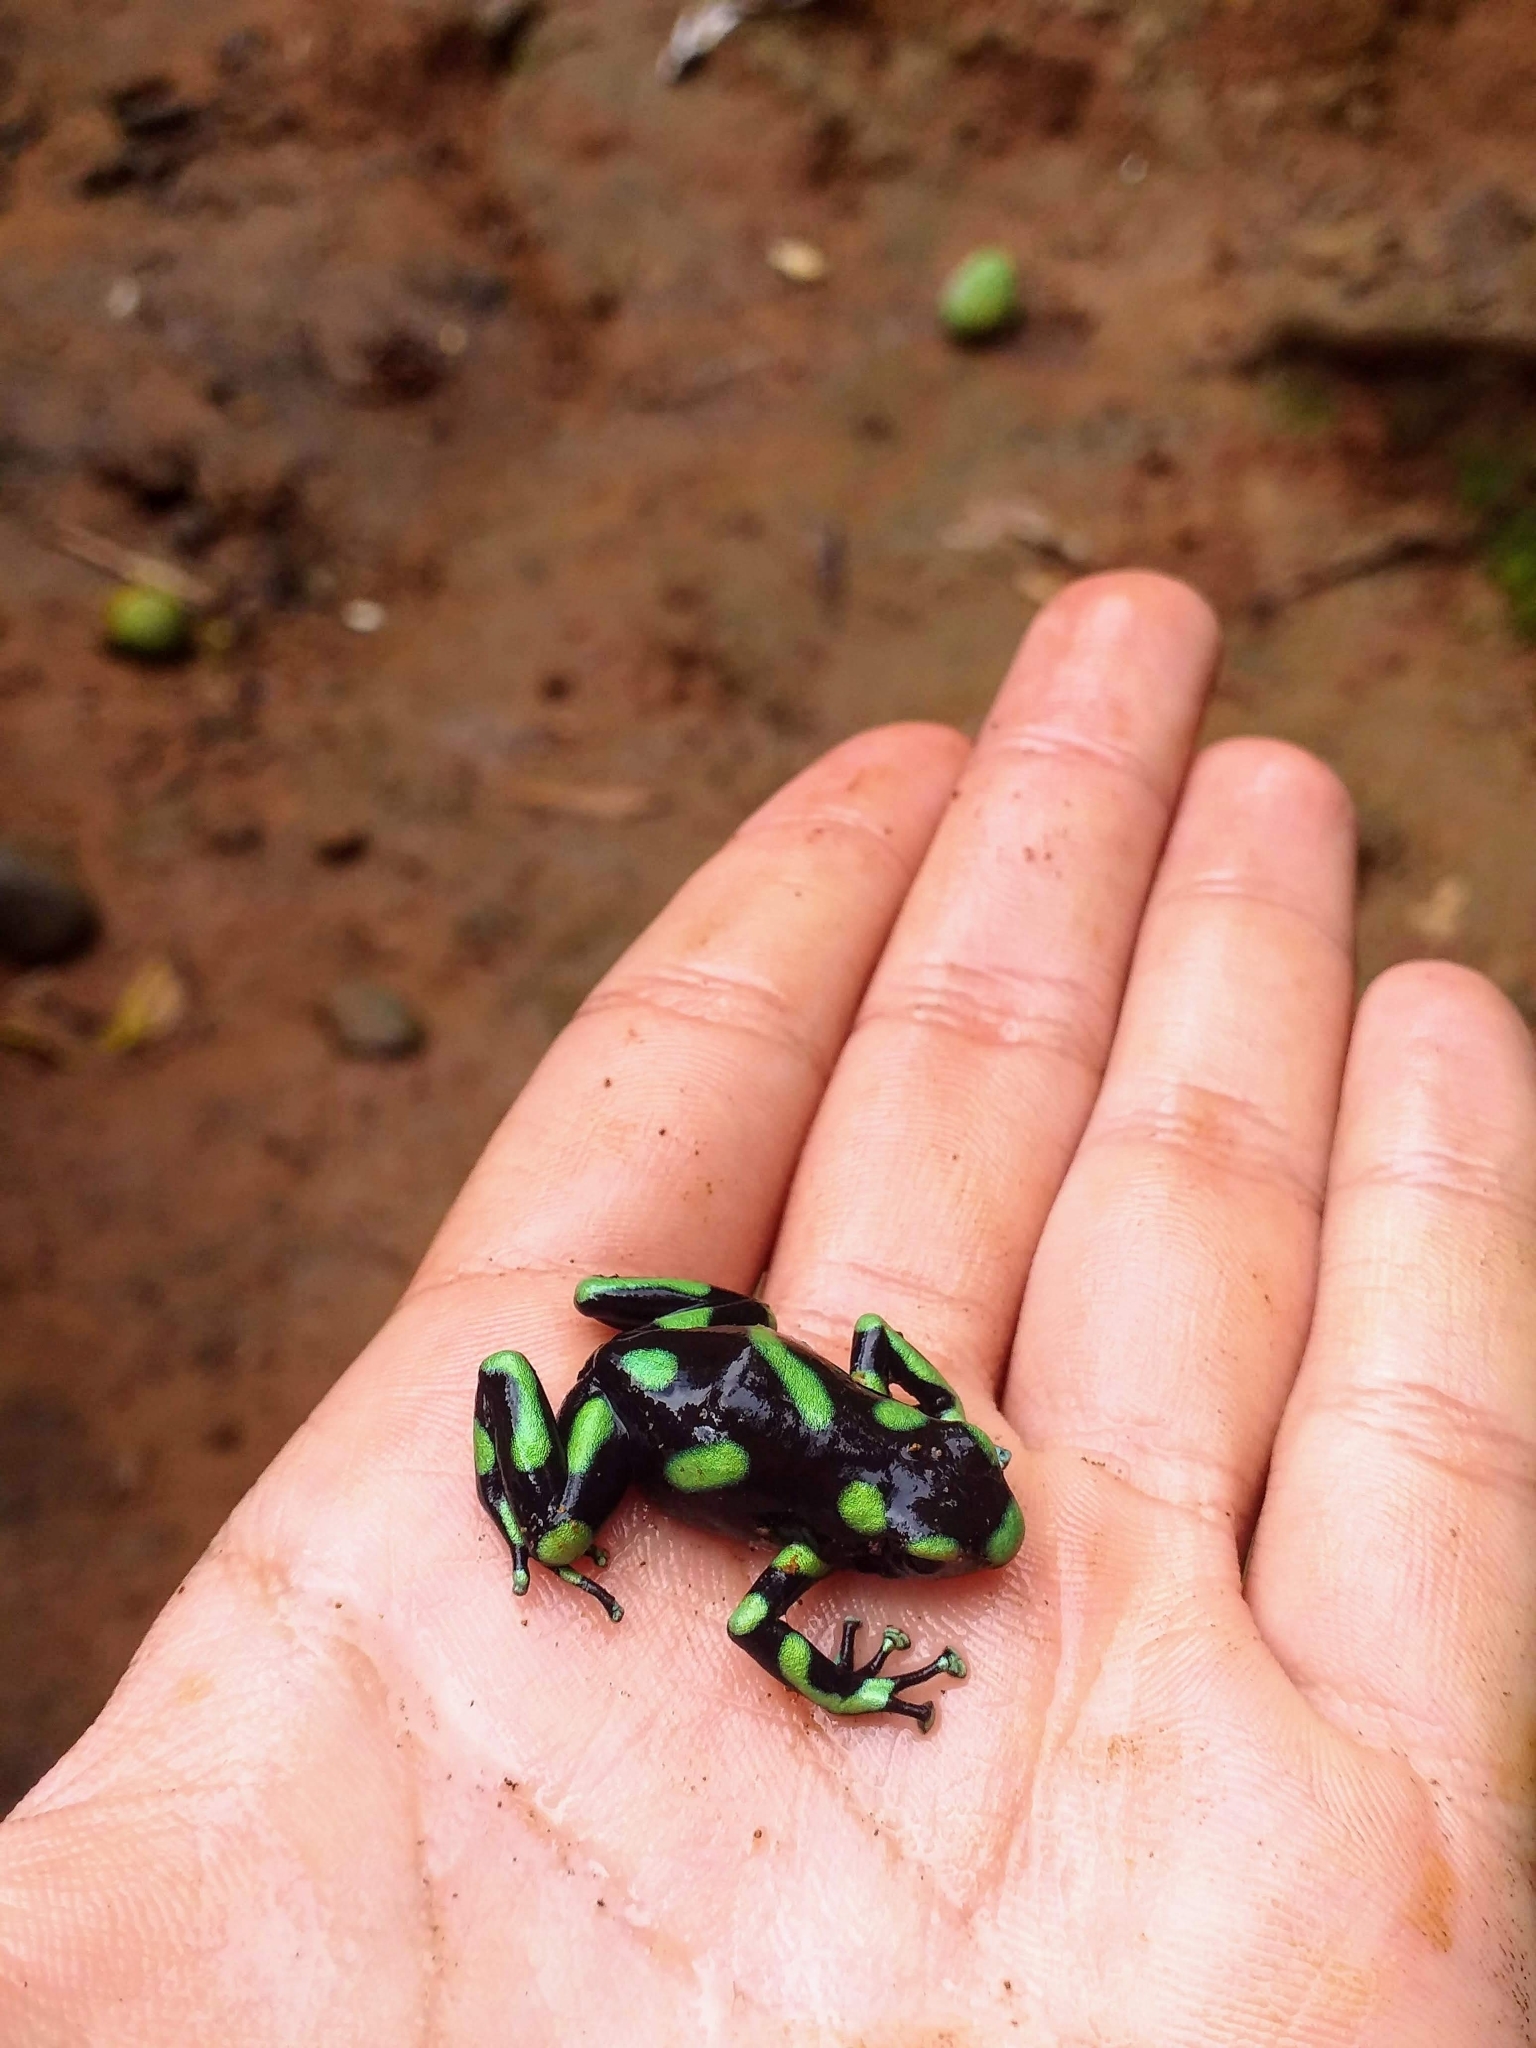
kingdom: Animalia
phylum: Chordata
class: Amphibia
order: Anura
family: Dendrobatidae
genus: Dendrobates
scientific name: Dendrobates auratus
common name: Green and black poison dart frog
